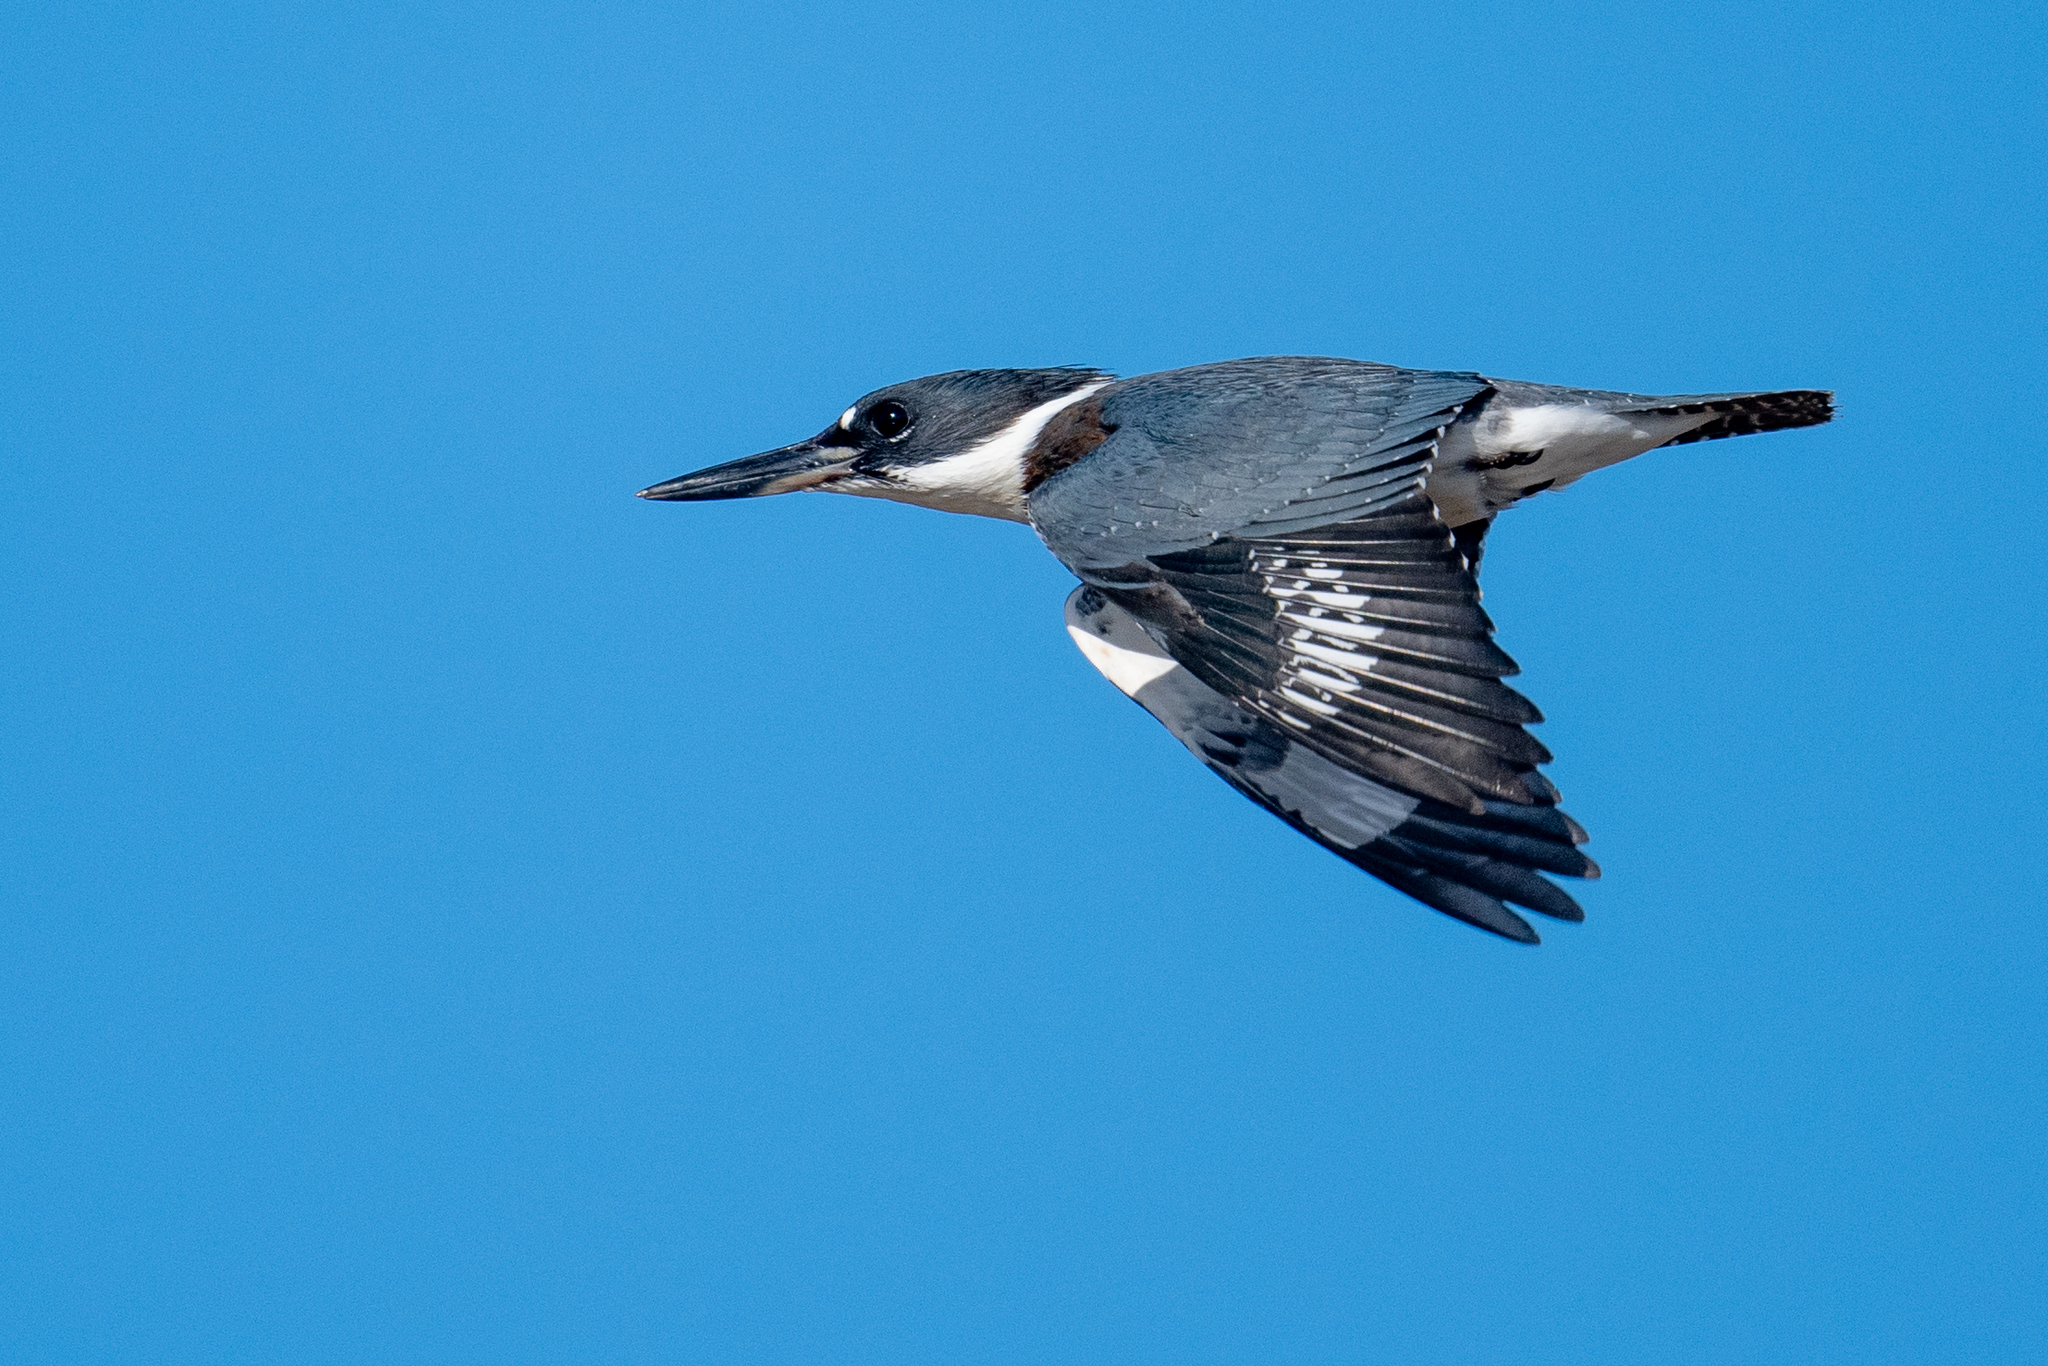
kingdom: Animalia
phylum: Chordata
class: Aves
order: Coraciiformes
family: Alcedinidae
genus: Megaceryle
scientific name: Megaceryle alcyon
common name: Belted kingfisher
